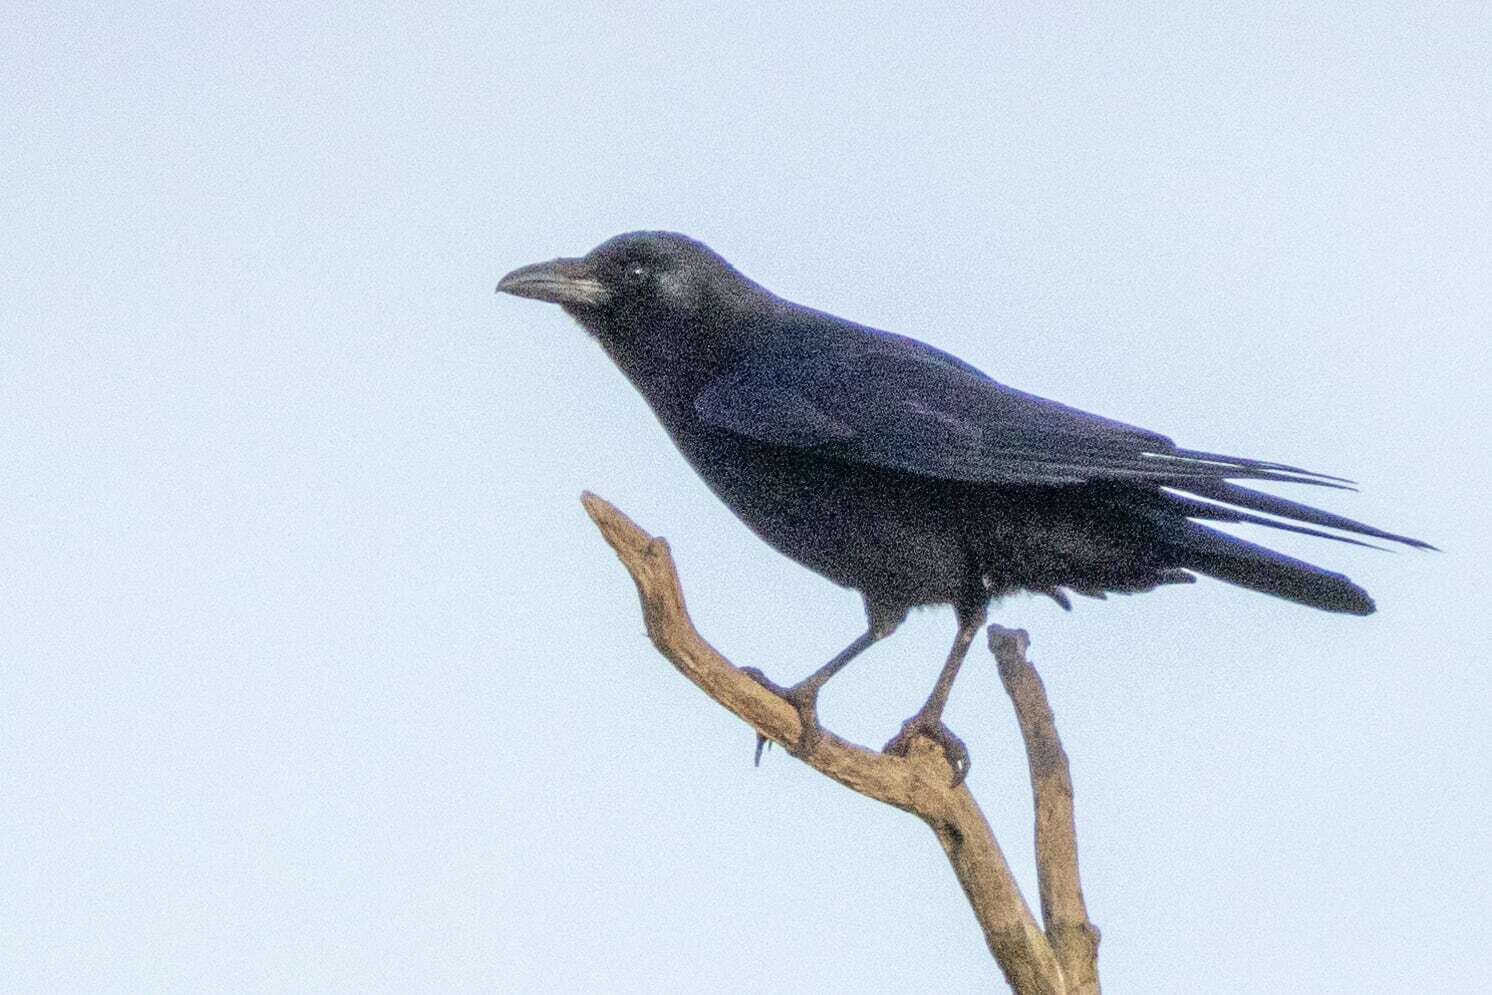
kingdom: Animalia
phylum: Chordata
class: Aves
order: Passeriformes
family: Corvidae
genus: Corvus
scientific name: Corvus corone
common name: Carrion crow
